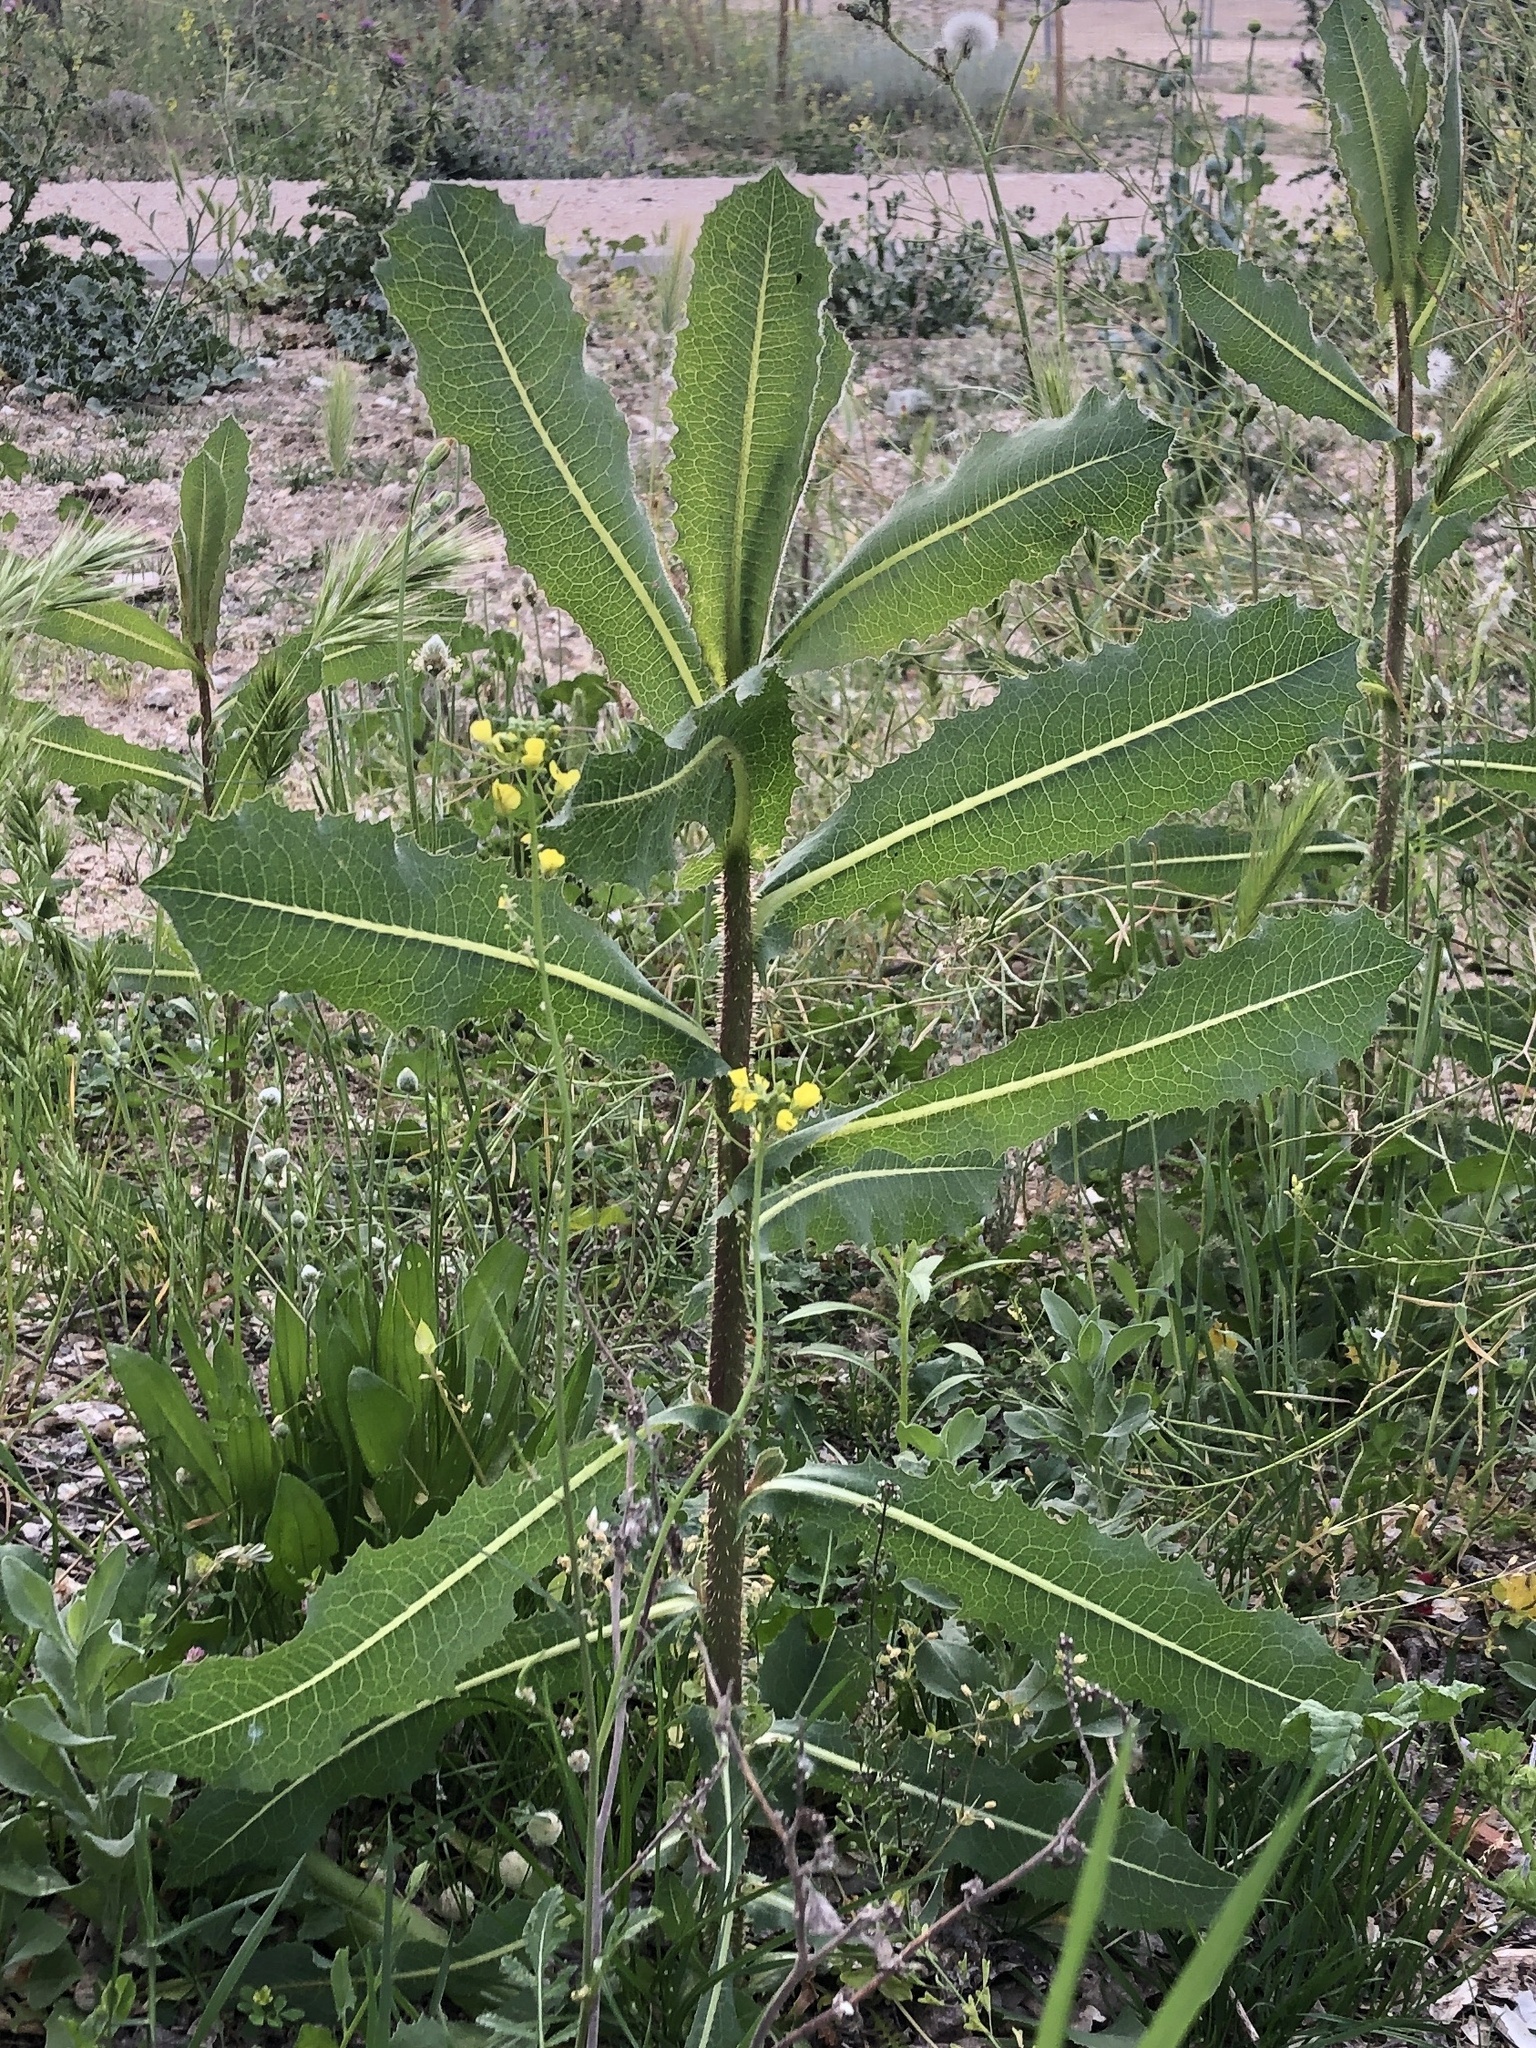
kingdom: Plantae
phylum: Tracheophyta
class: Magnoliopsida
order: Asterales
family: Asteraceae
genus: Lactuca
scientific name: Lactuca serriola
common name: Prickly lettuce
